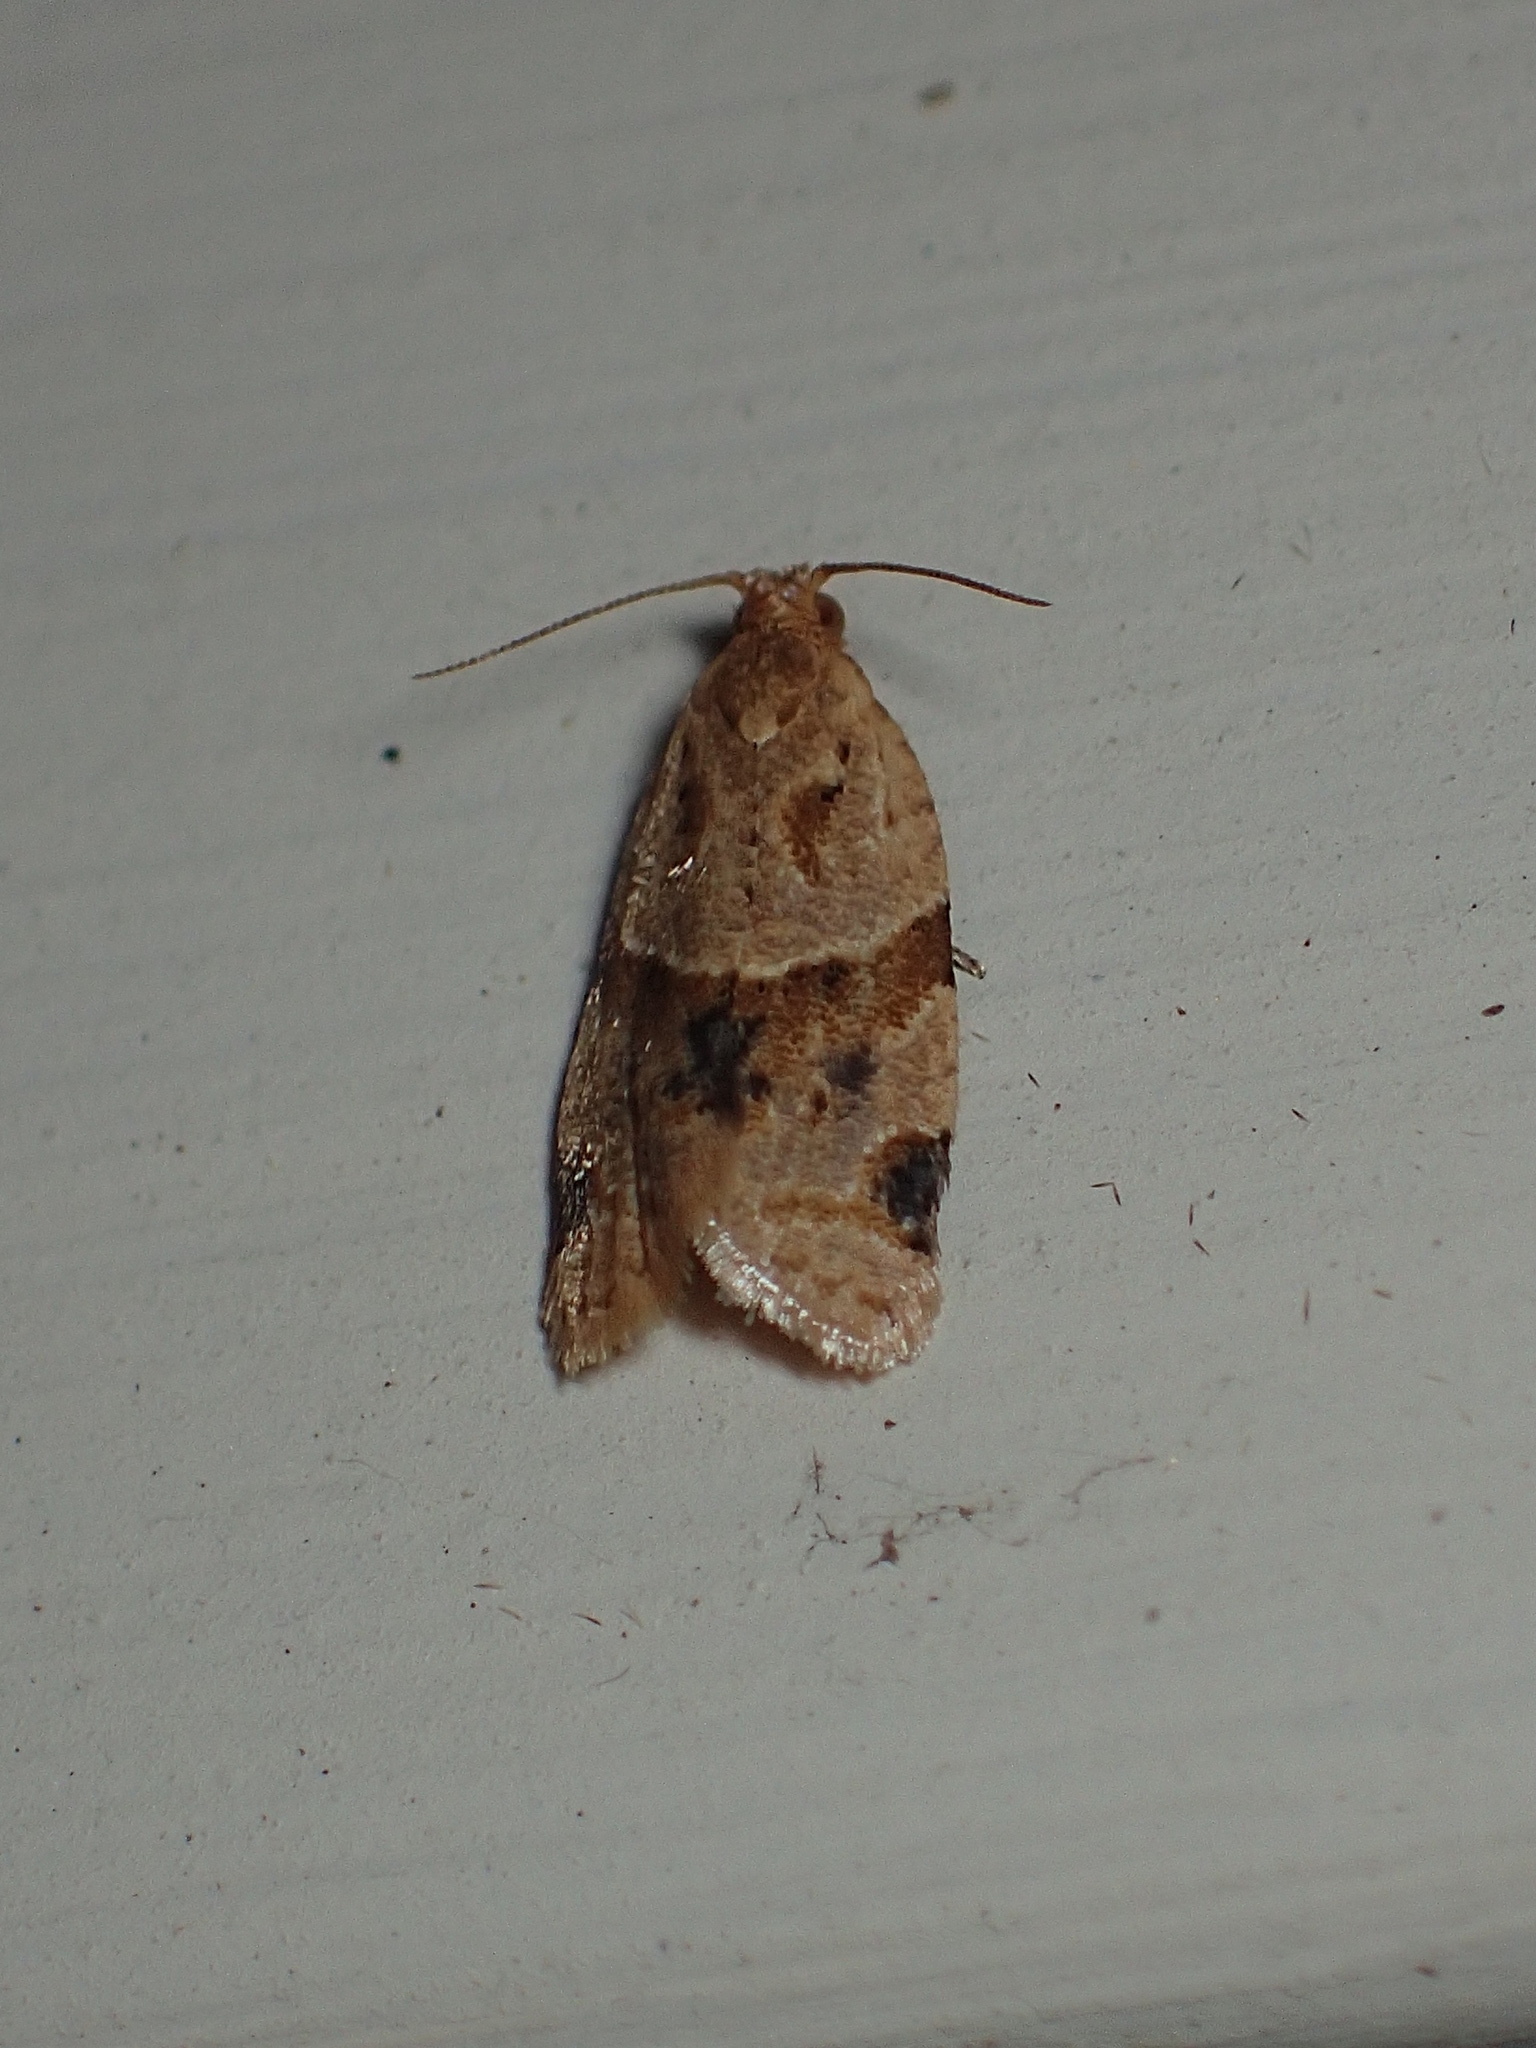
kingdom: Animalia
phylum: Arthropoda
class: Insecta
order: Lepidoptera
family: Tortricidae
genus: Clepsis
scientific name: Clepsis peritana
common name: Garden tortrix
